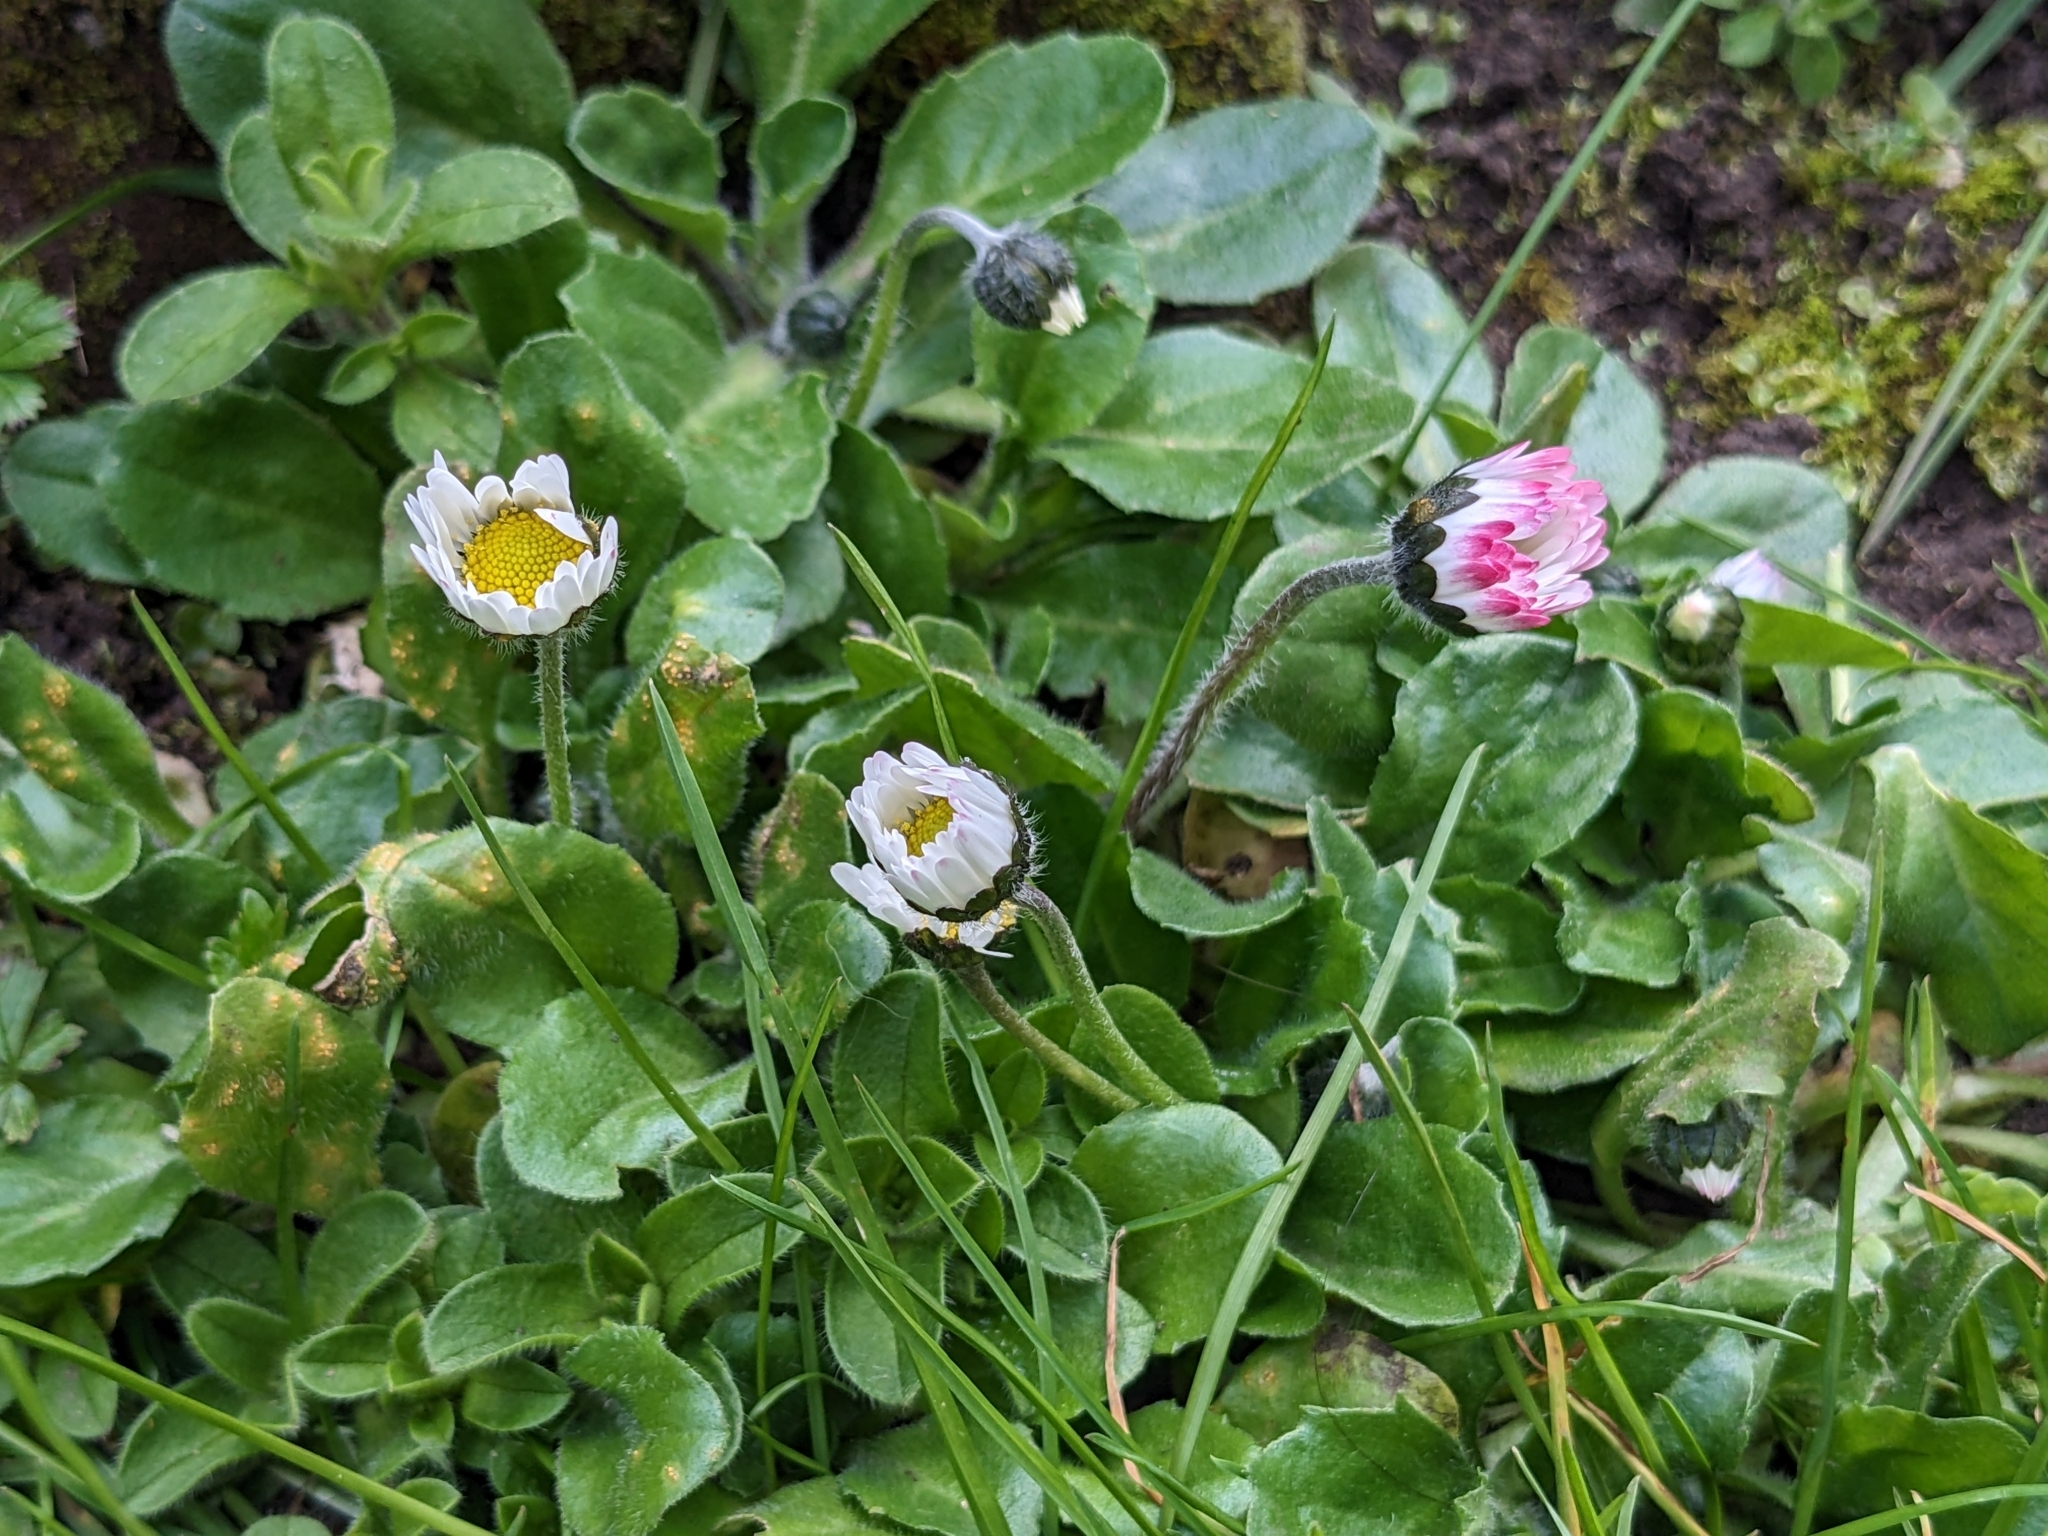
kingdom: Plantae
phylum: Tracheophyta
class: Magnoliopsida
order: Asterales
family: Asteraceae
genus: Bellis
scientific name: Bellis perennis
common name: Lawndaisy
